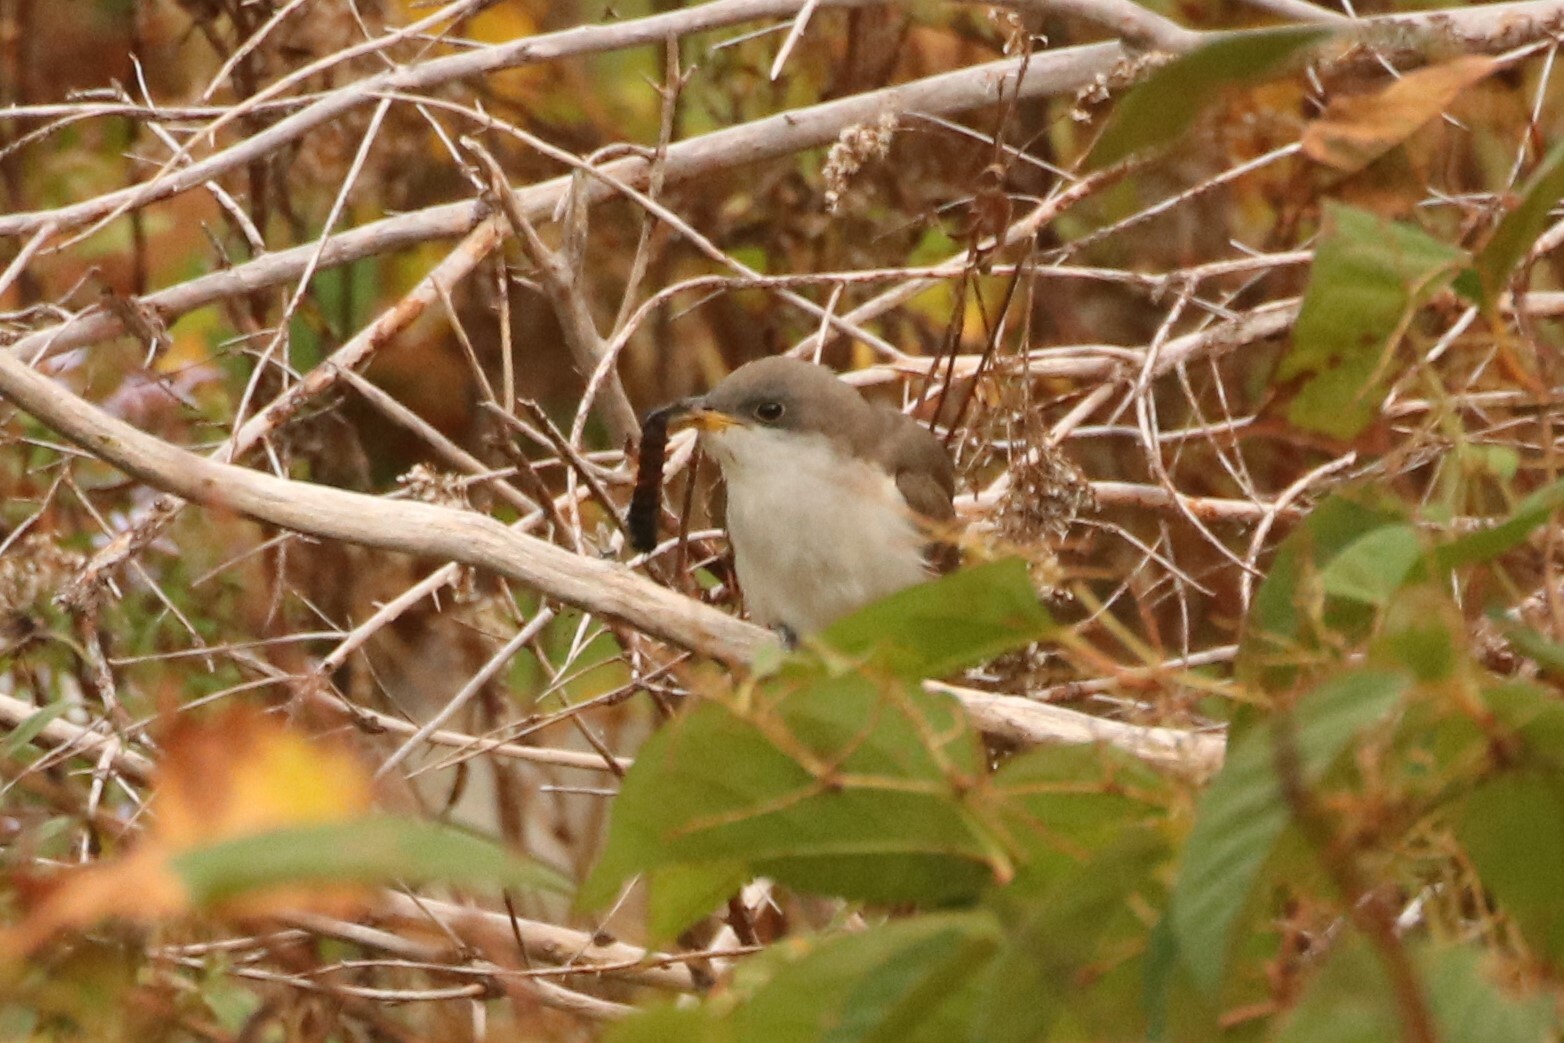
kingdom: Animalia
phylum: Chordata
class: Aves
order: Cuculiformes
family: Cuculidae
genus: Coccyzus
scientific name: Coccyzus americanus
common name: Yellow-billed cuckoo
